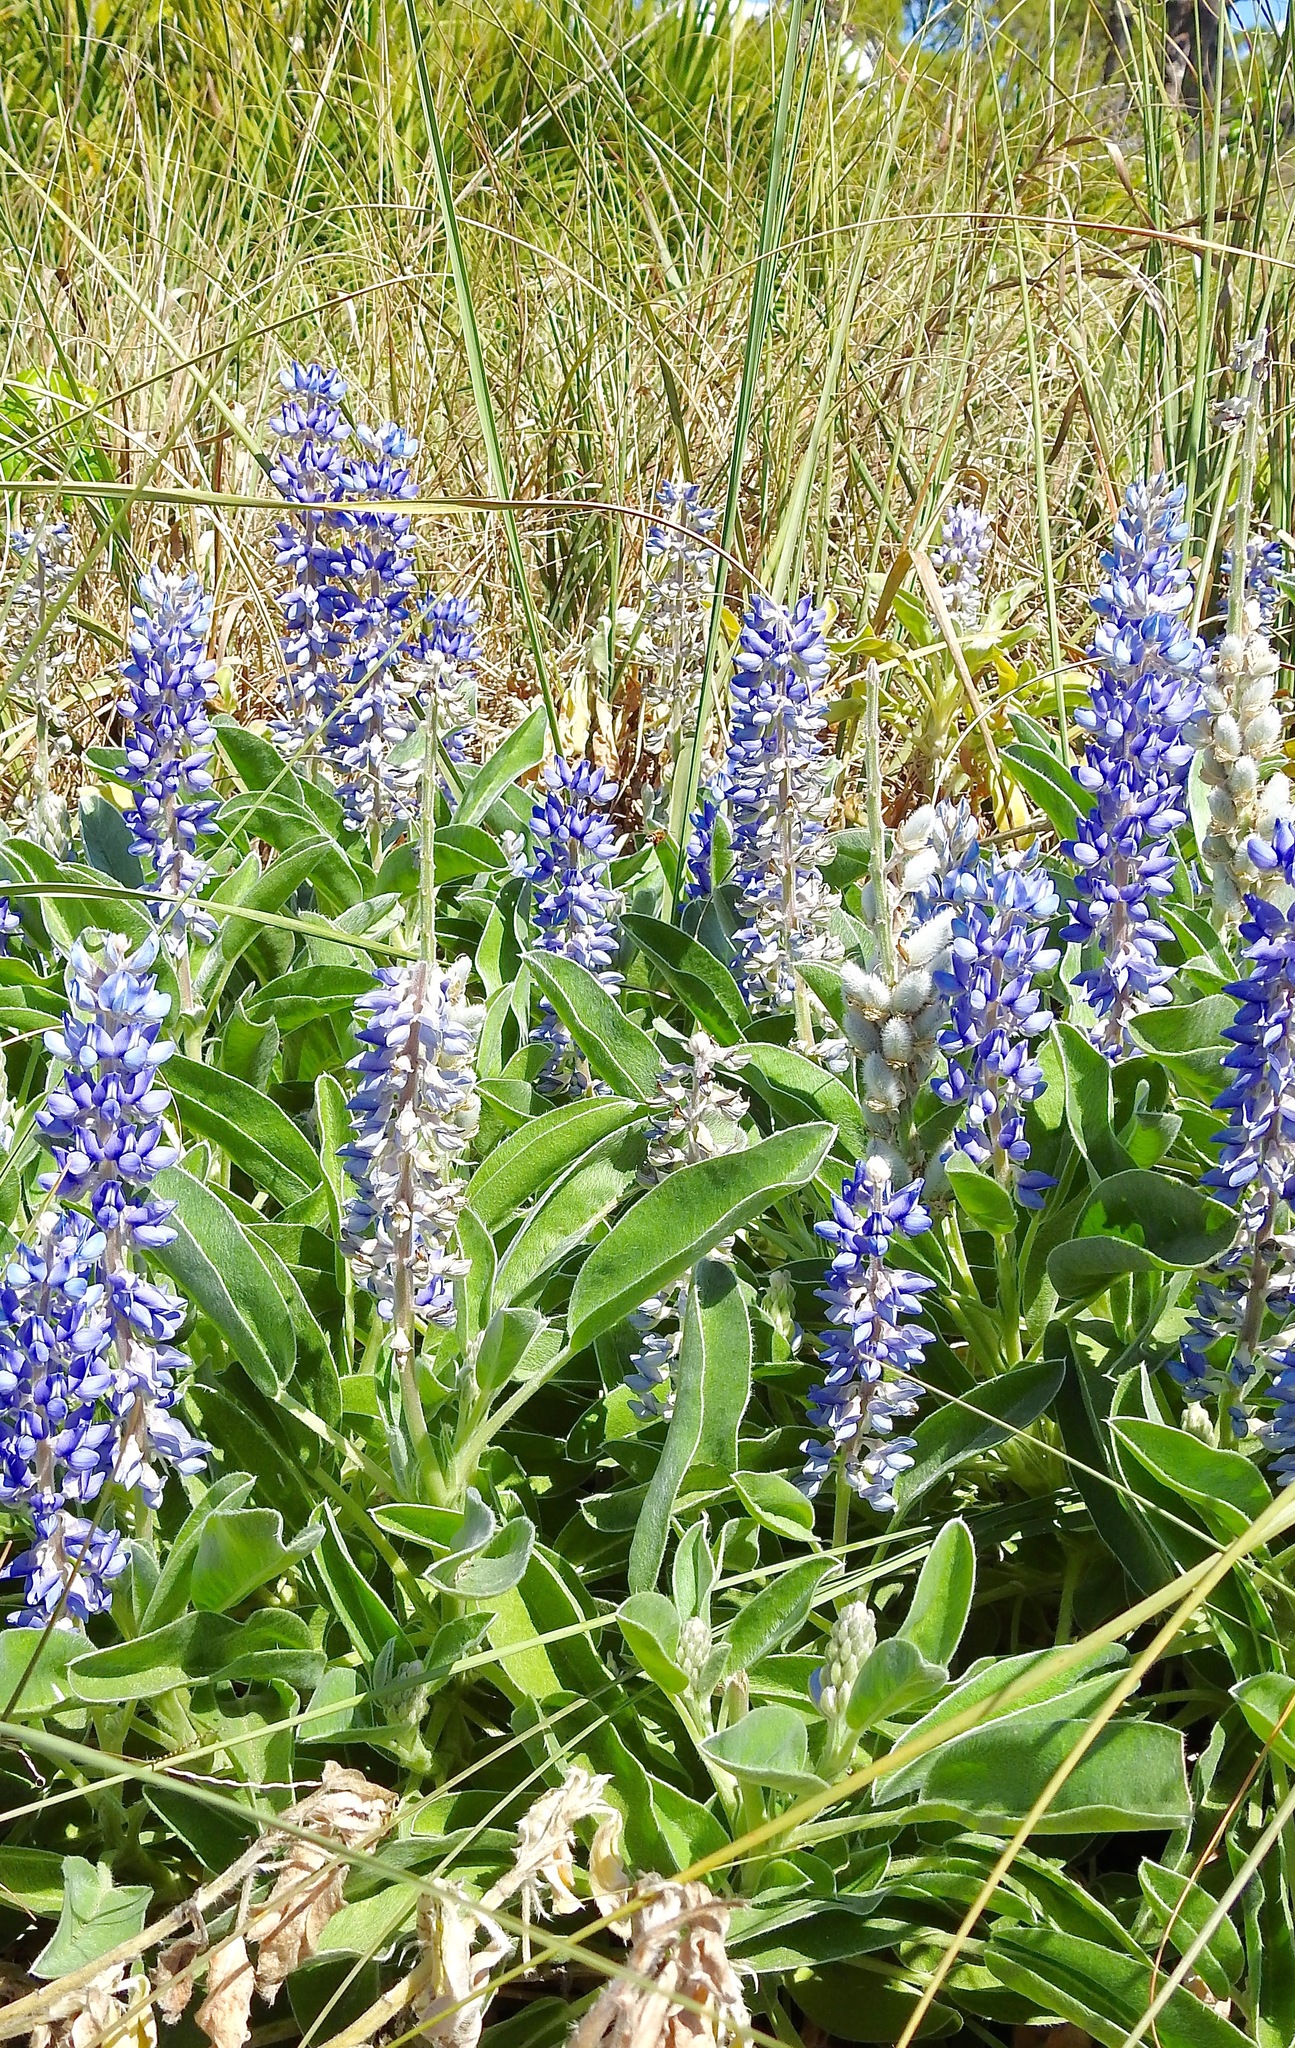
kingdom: Plantae
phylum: Tracheophyta
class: Magnoliopsida
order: Fabales
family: Fabaceae
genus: Lupinus
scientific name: Lupinus
